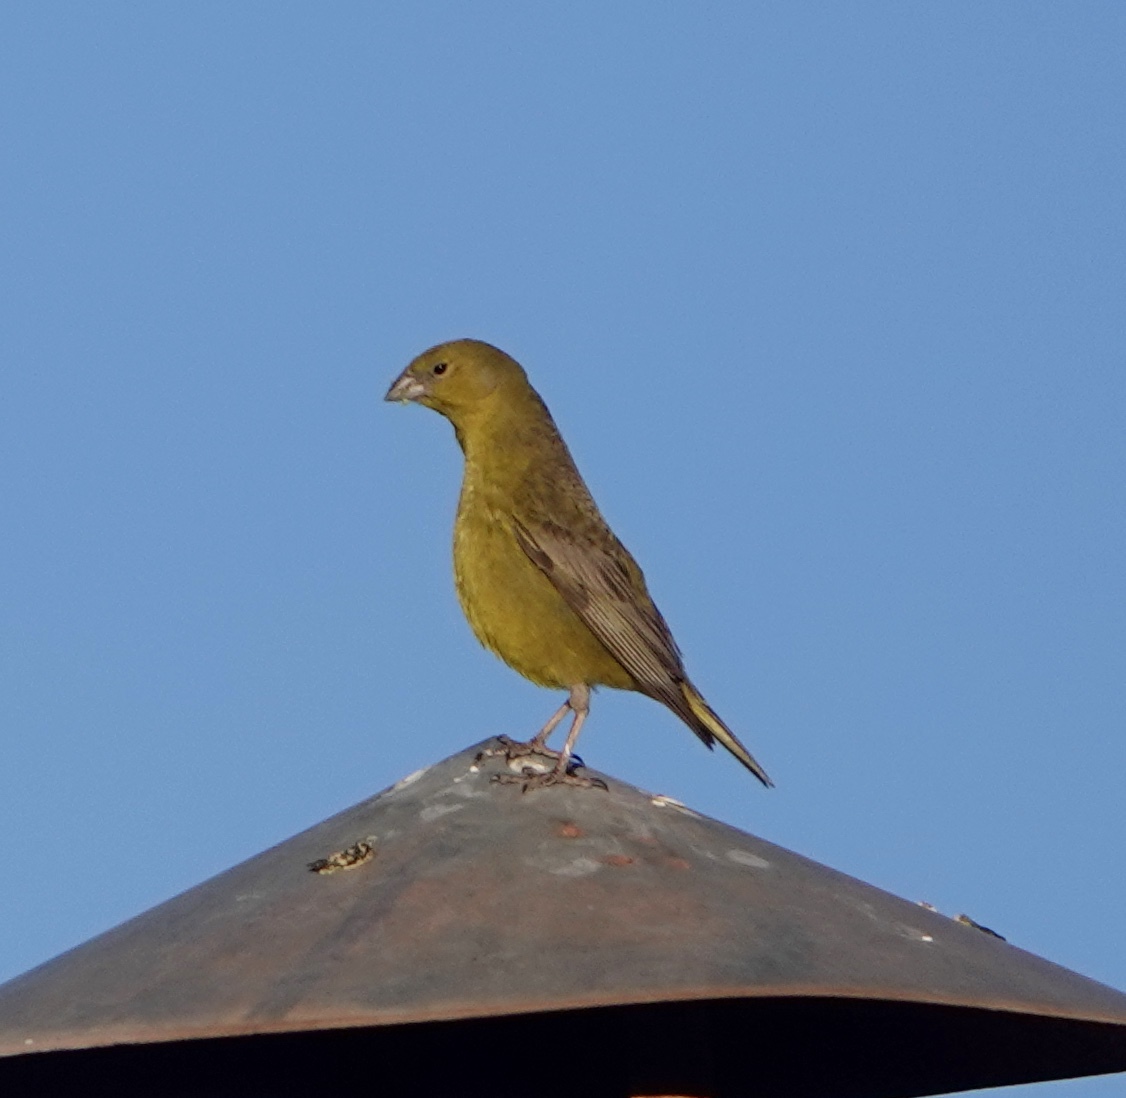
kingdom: Animalia
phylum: Chordata
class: Aves
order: Passeriformes
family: Thraupidae
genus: Sicalis
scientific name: Sicalis olivascens
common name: Greenish yellow finch
